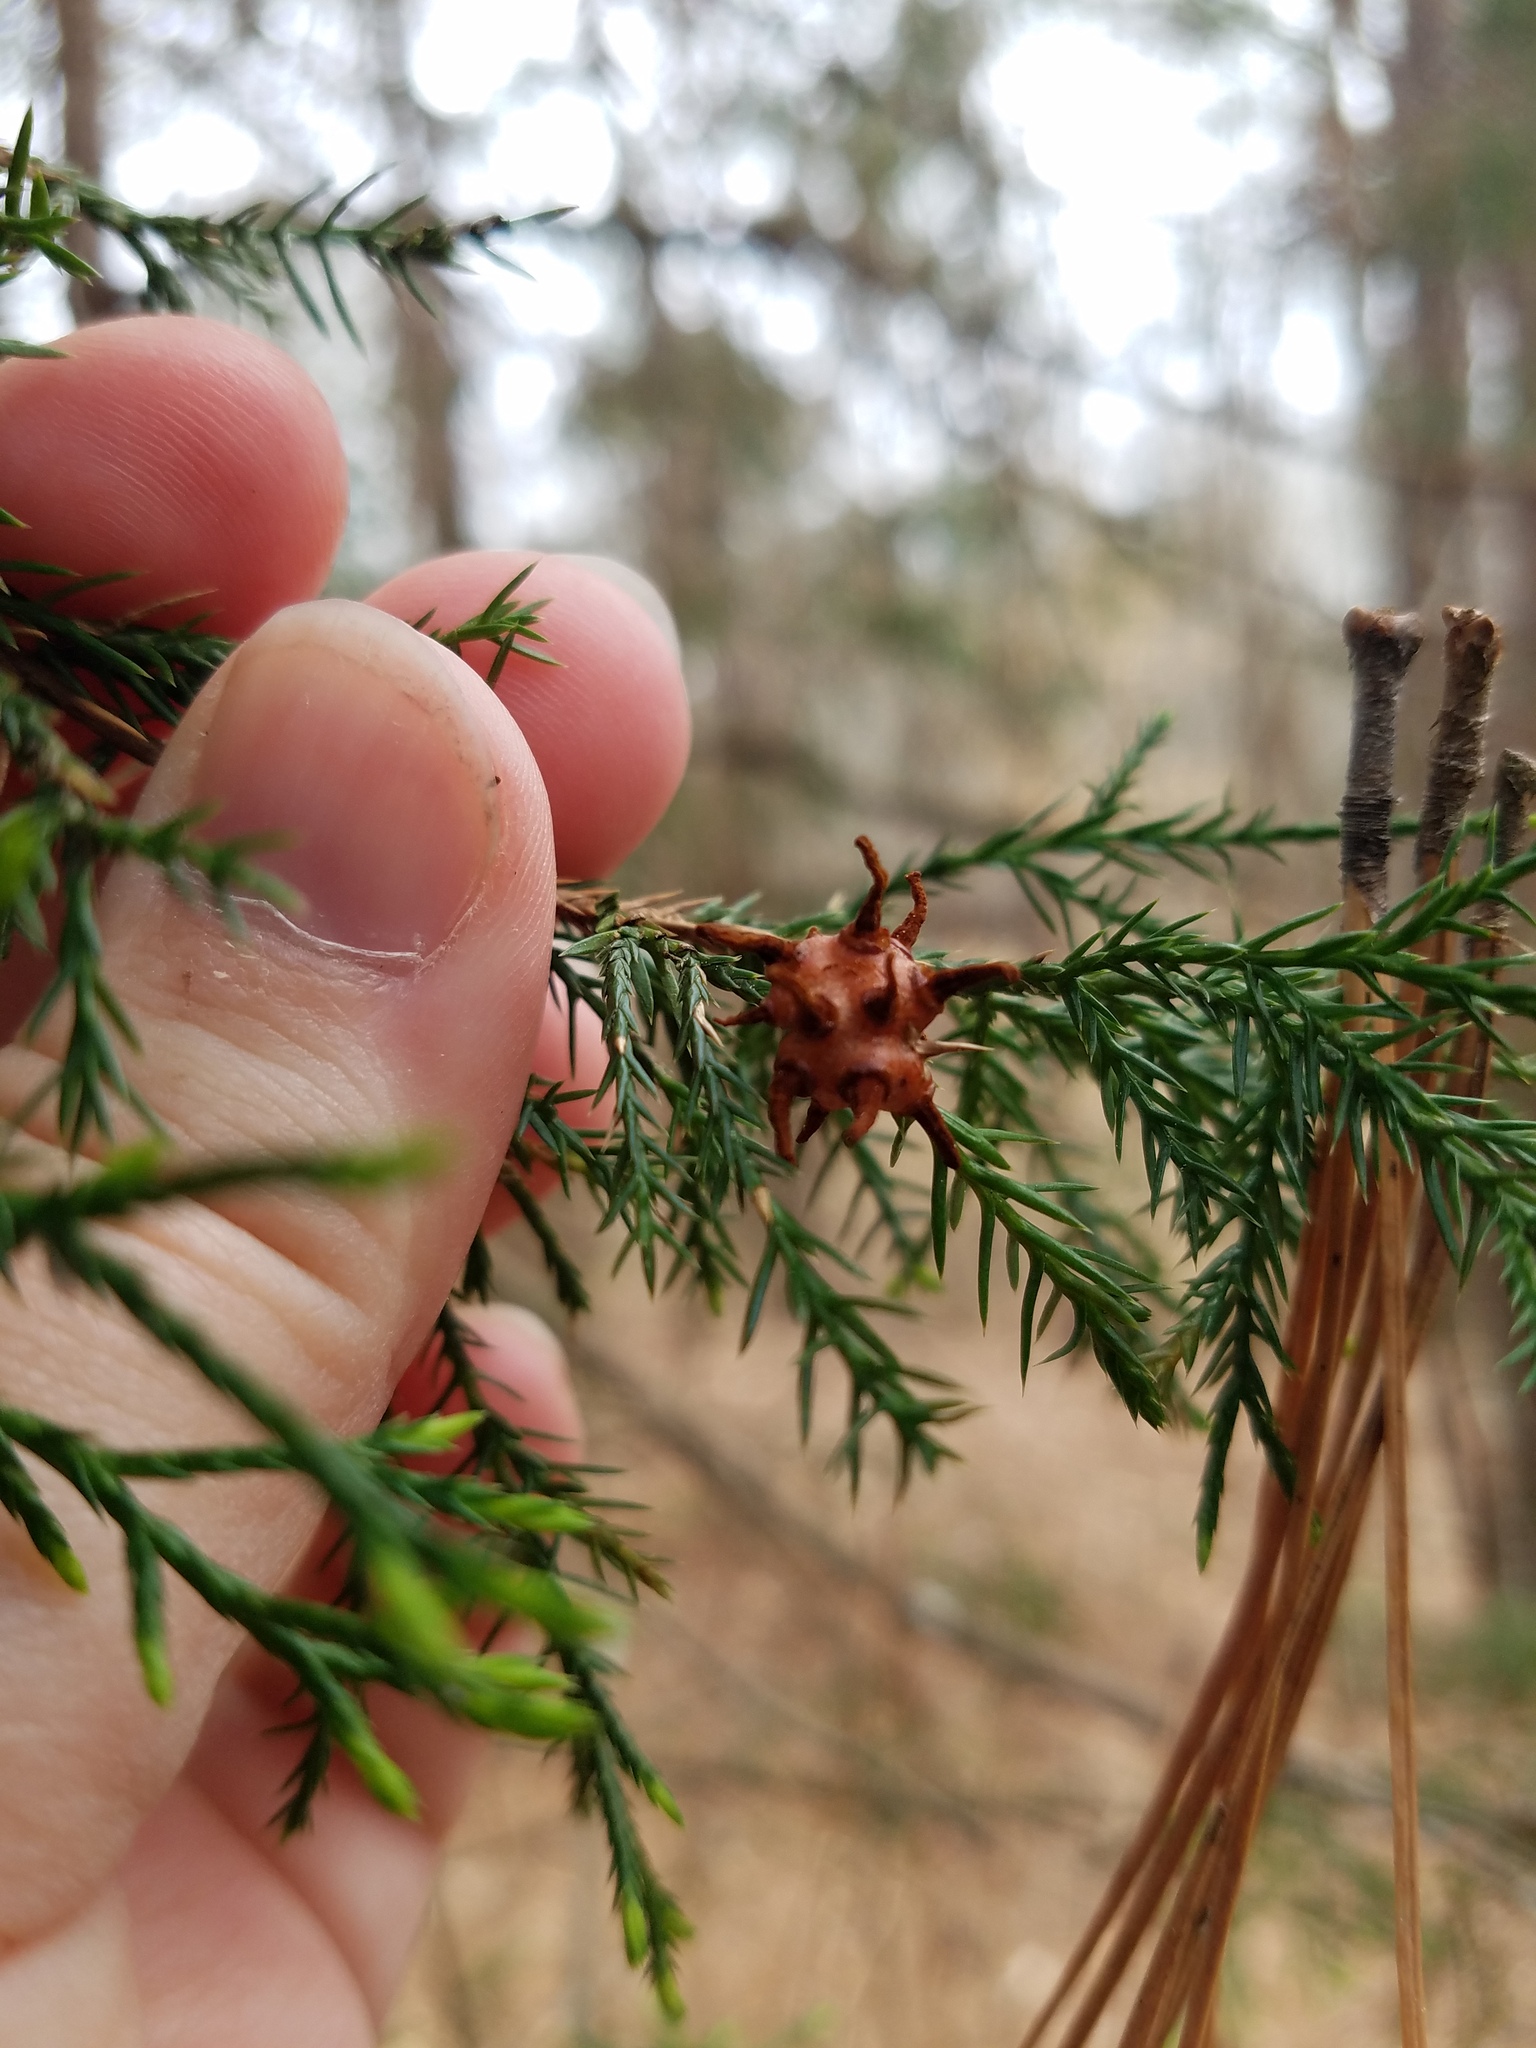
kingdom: Fungi
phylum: Basidiomycota
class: Pucciniomycetes
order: Pucciniales
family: Gymnosporangiaceae
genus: Gymnosporangium
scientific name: Gymnosporangium juniperi-virginianae
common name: Juniper-apple rust
